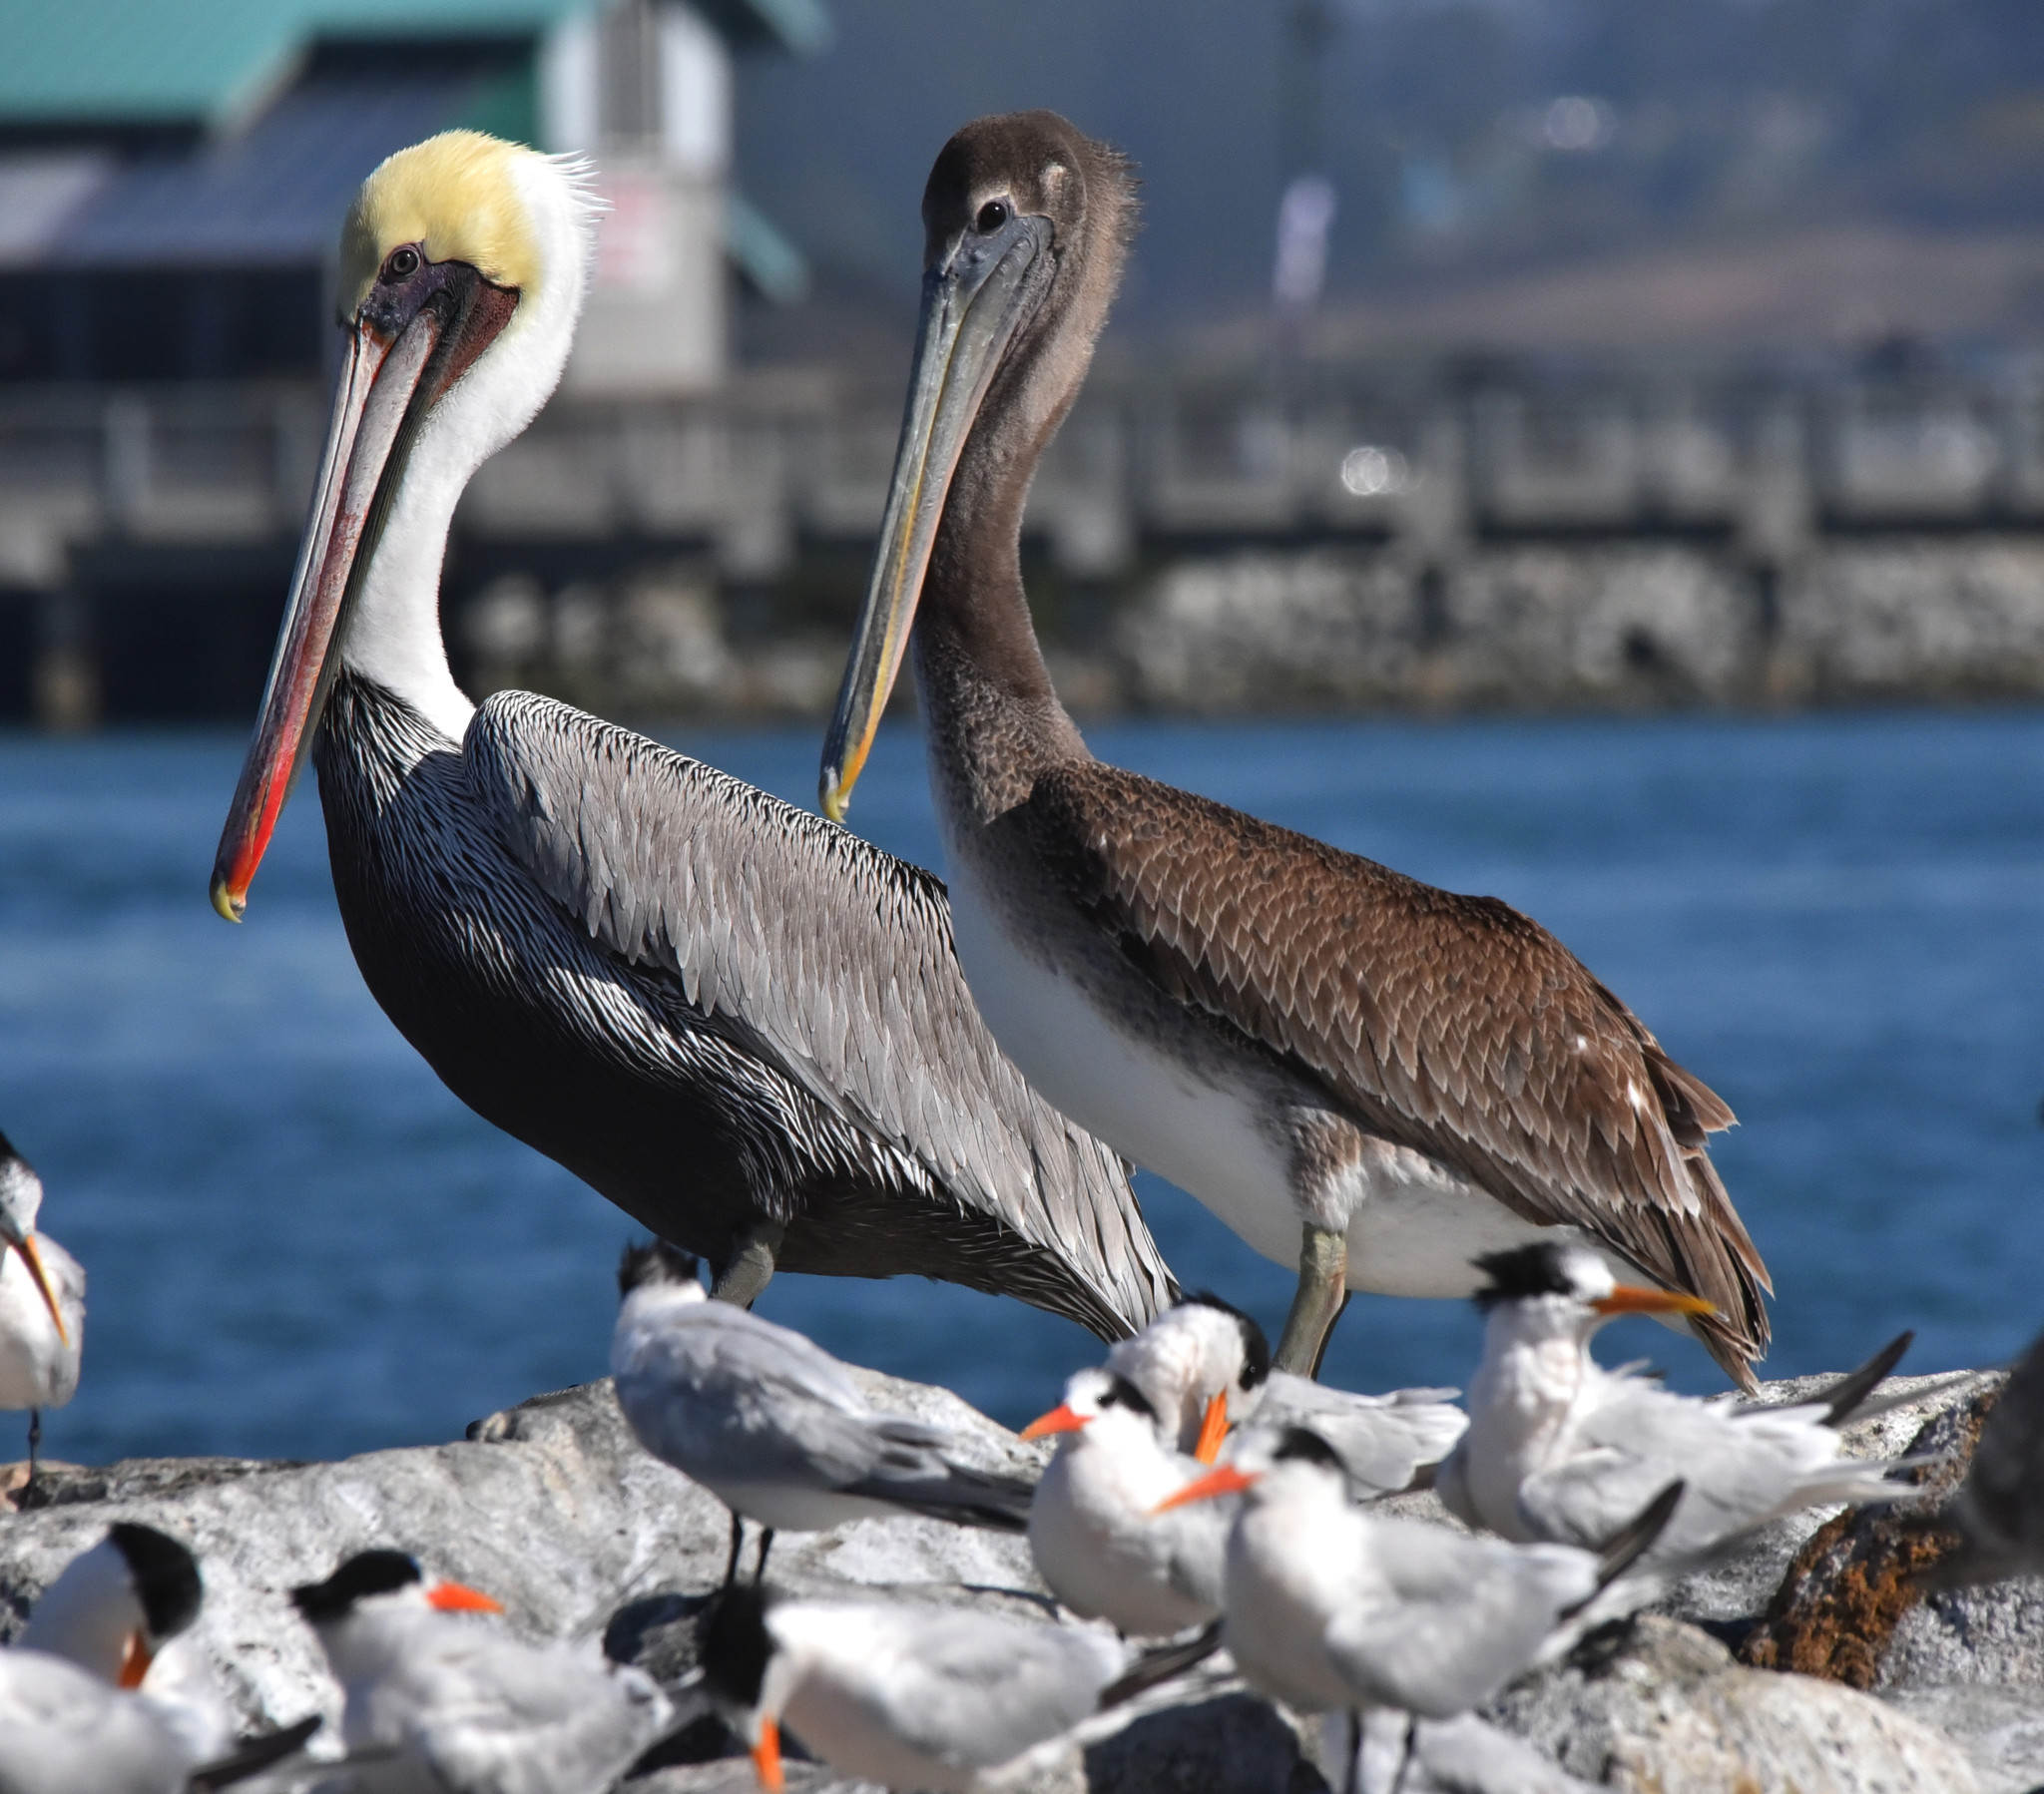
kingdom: Animalia
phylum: Chordata
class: Aves
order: Pelecaniformes
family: Pelecanidae
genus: Pelecanus
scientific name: Pelecanus occidentalis
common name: Brown pelican
